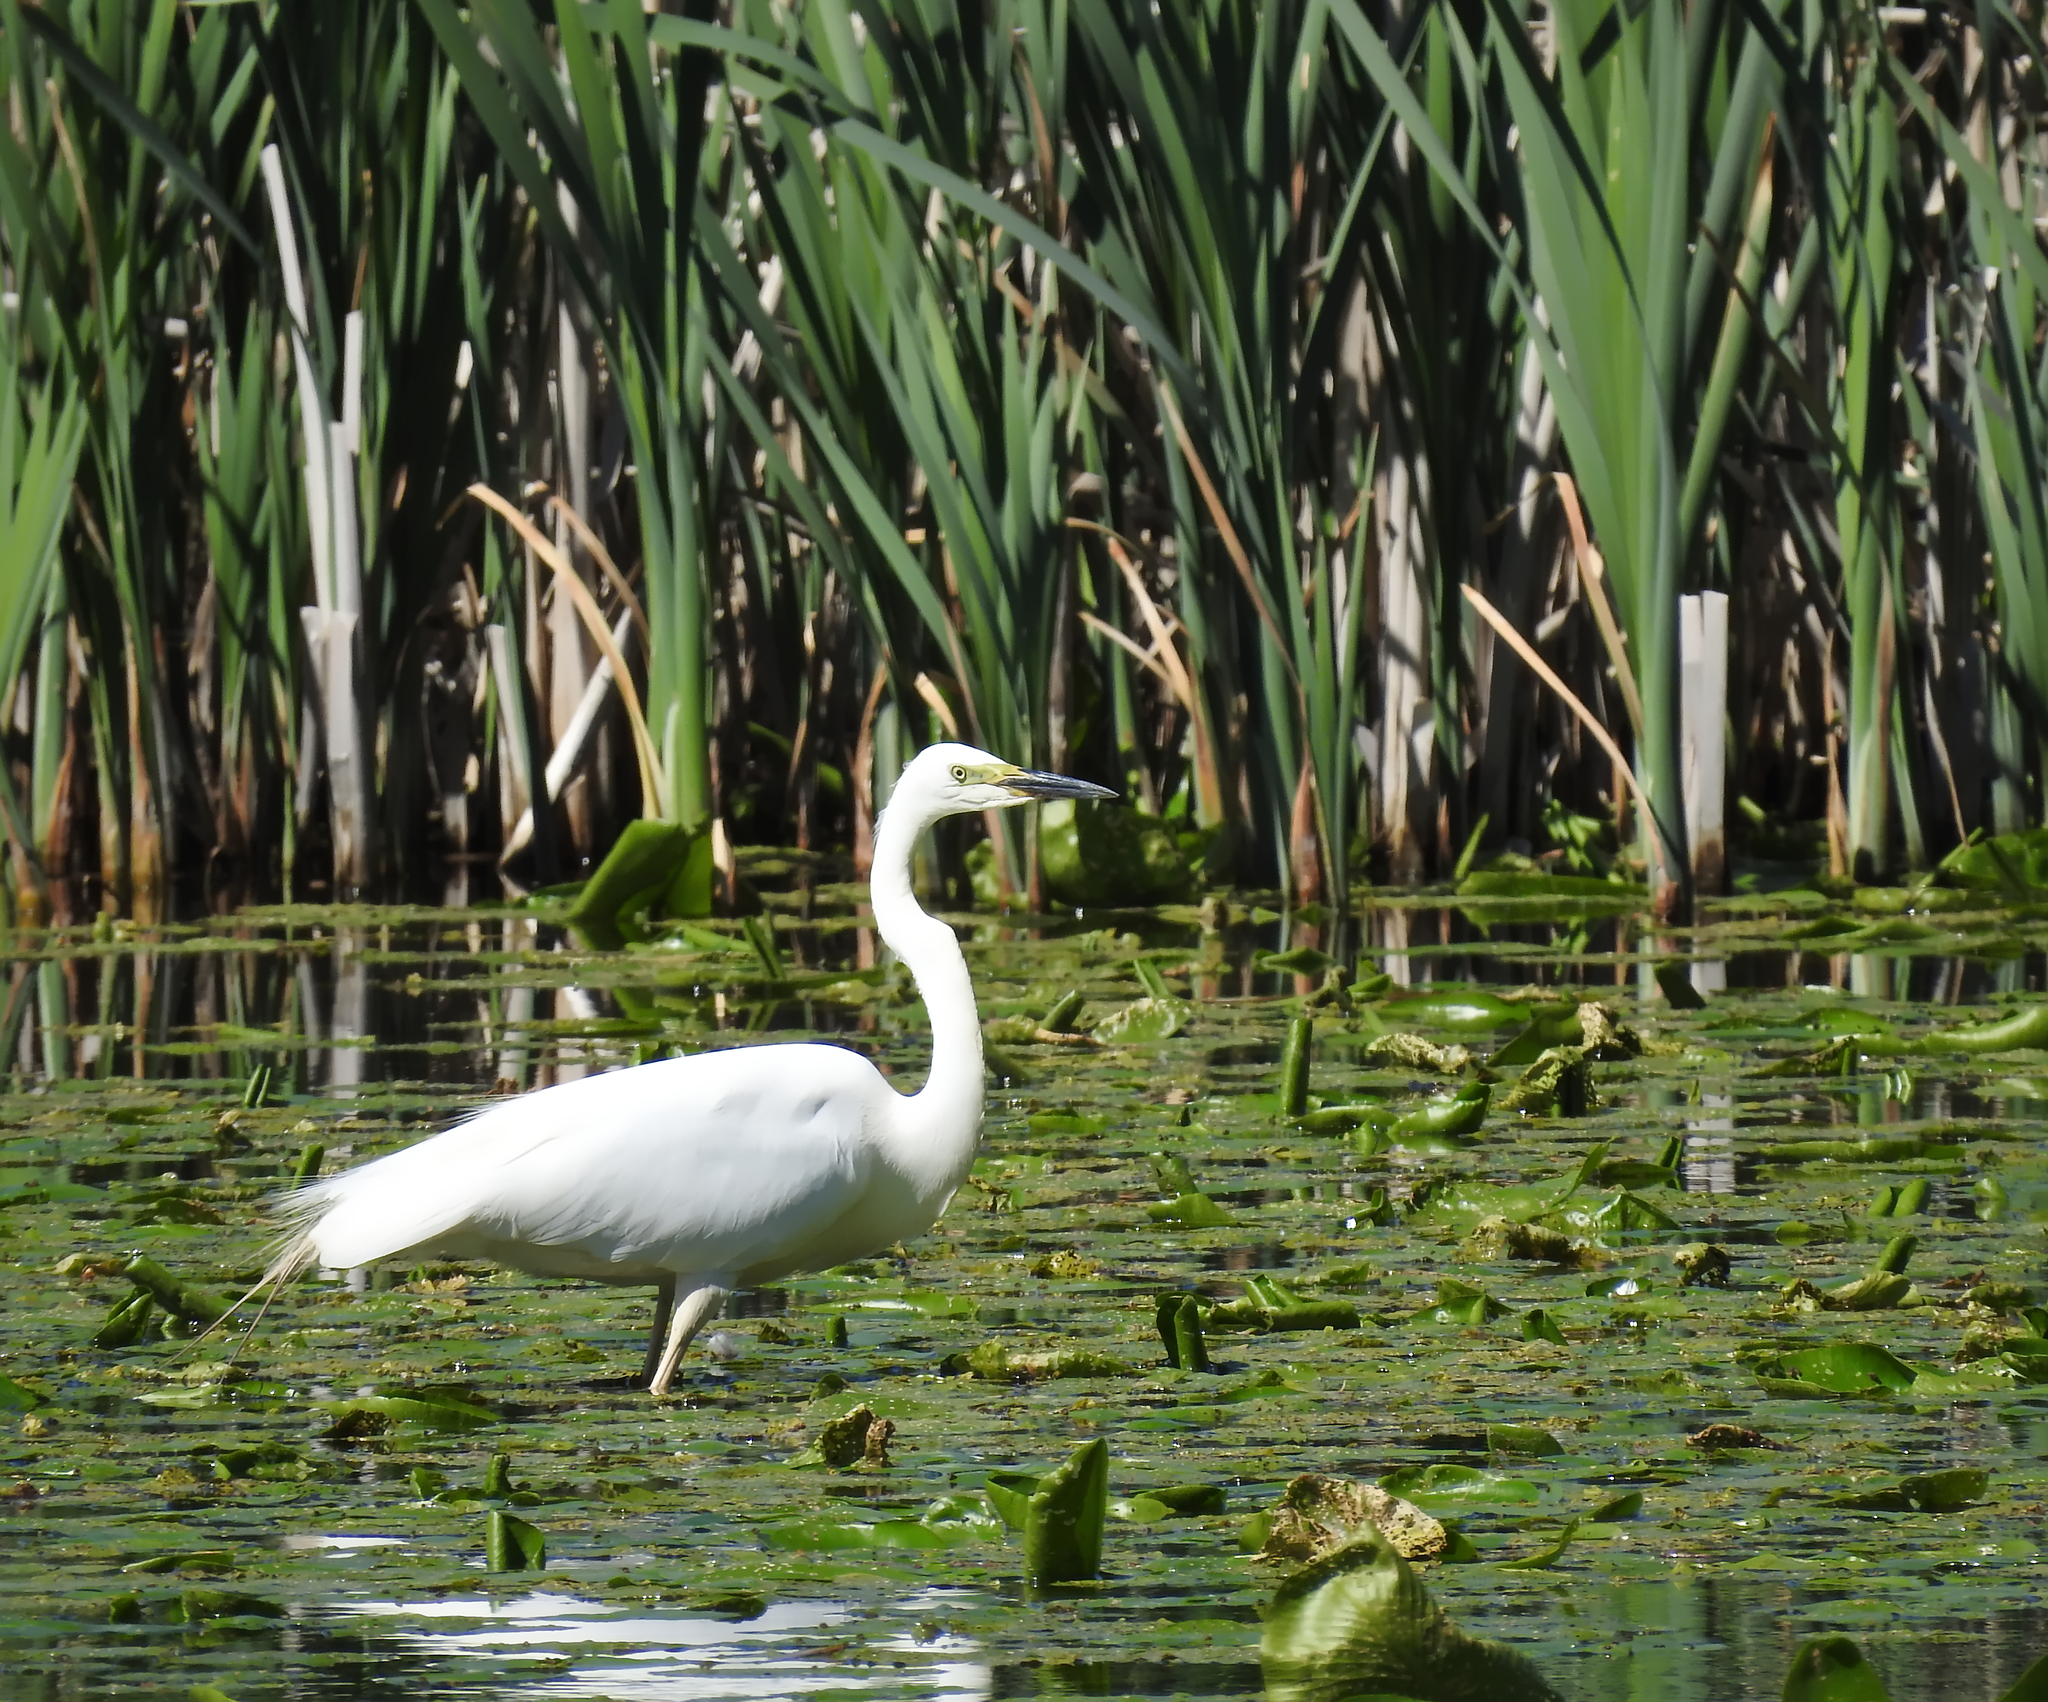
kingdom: Animalia
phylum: Chordata
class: Aves
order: Pelecaniformes
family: Ardeidae
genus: Ardea
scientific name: Ardea alba
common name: Great egret
